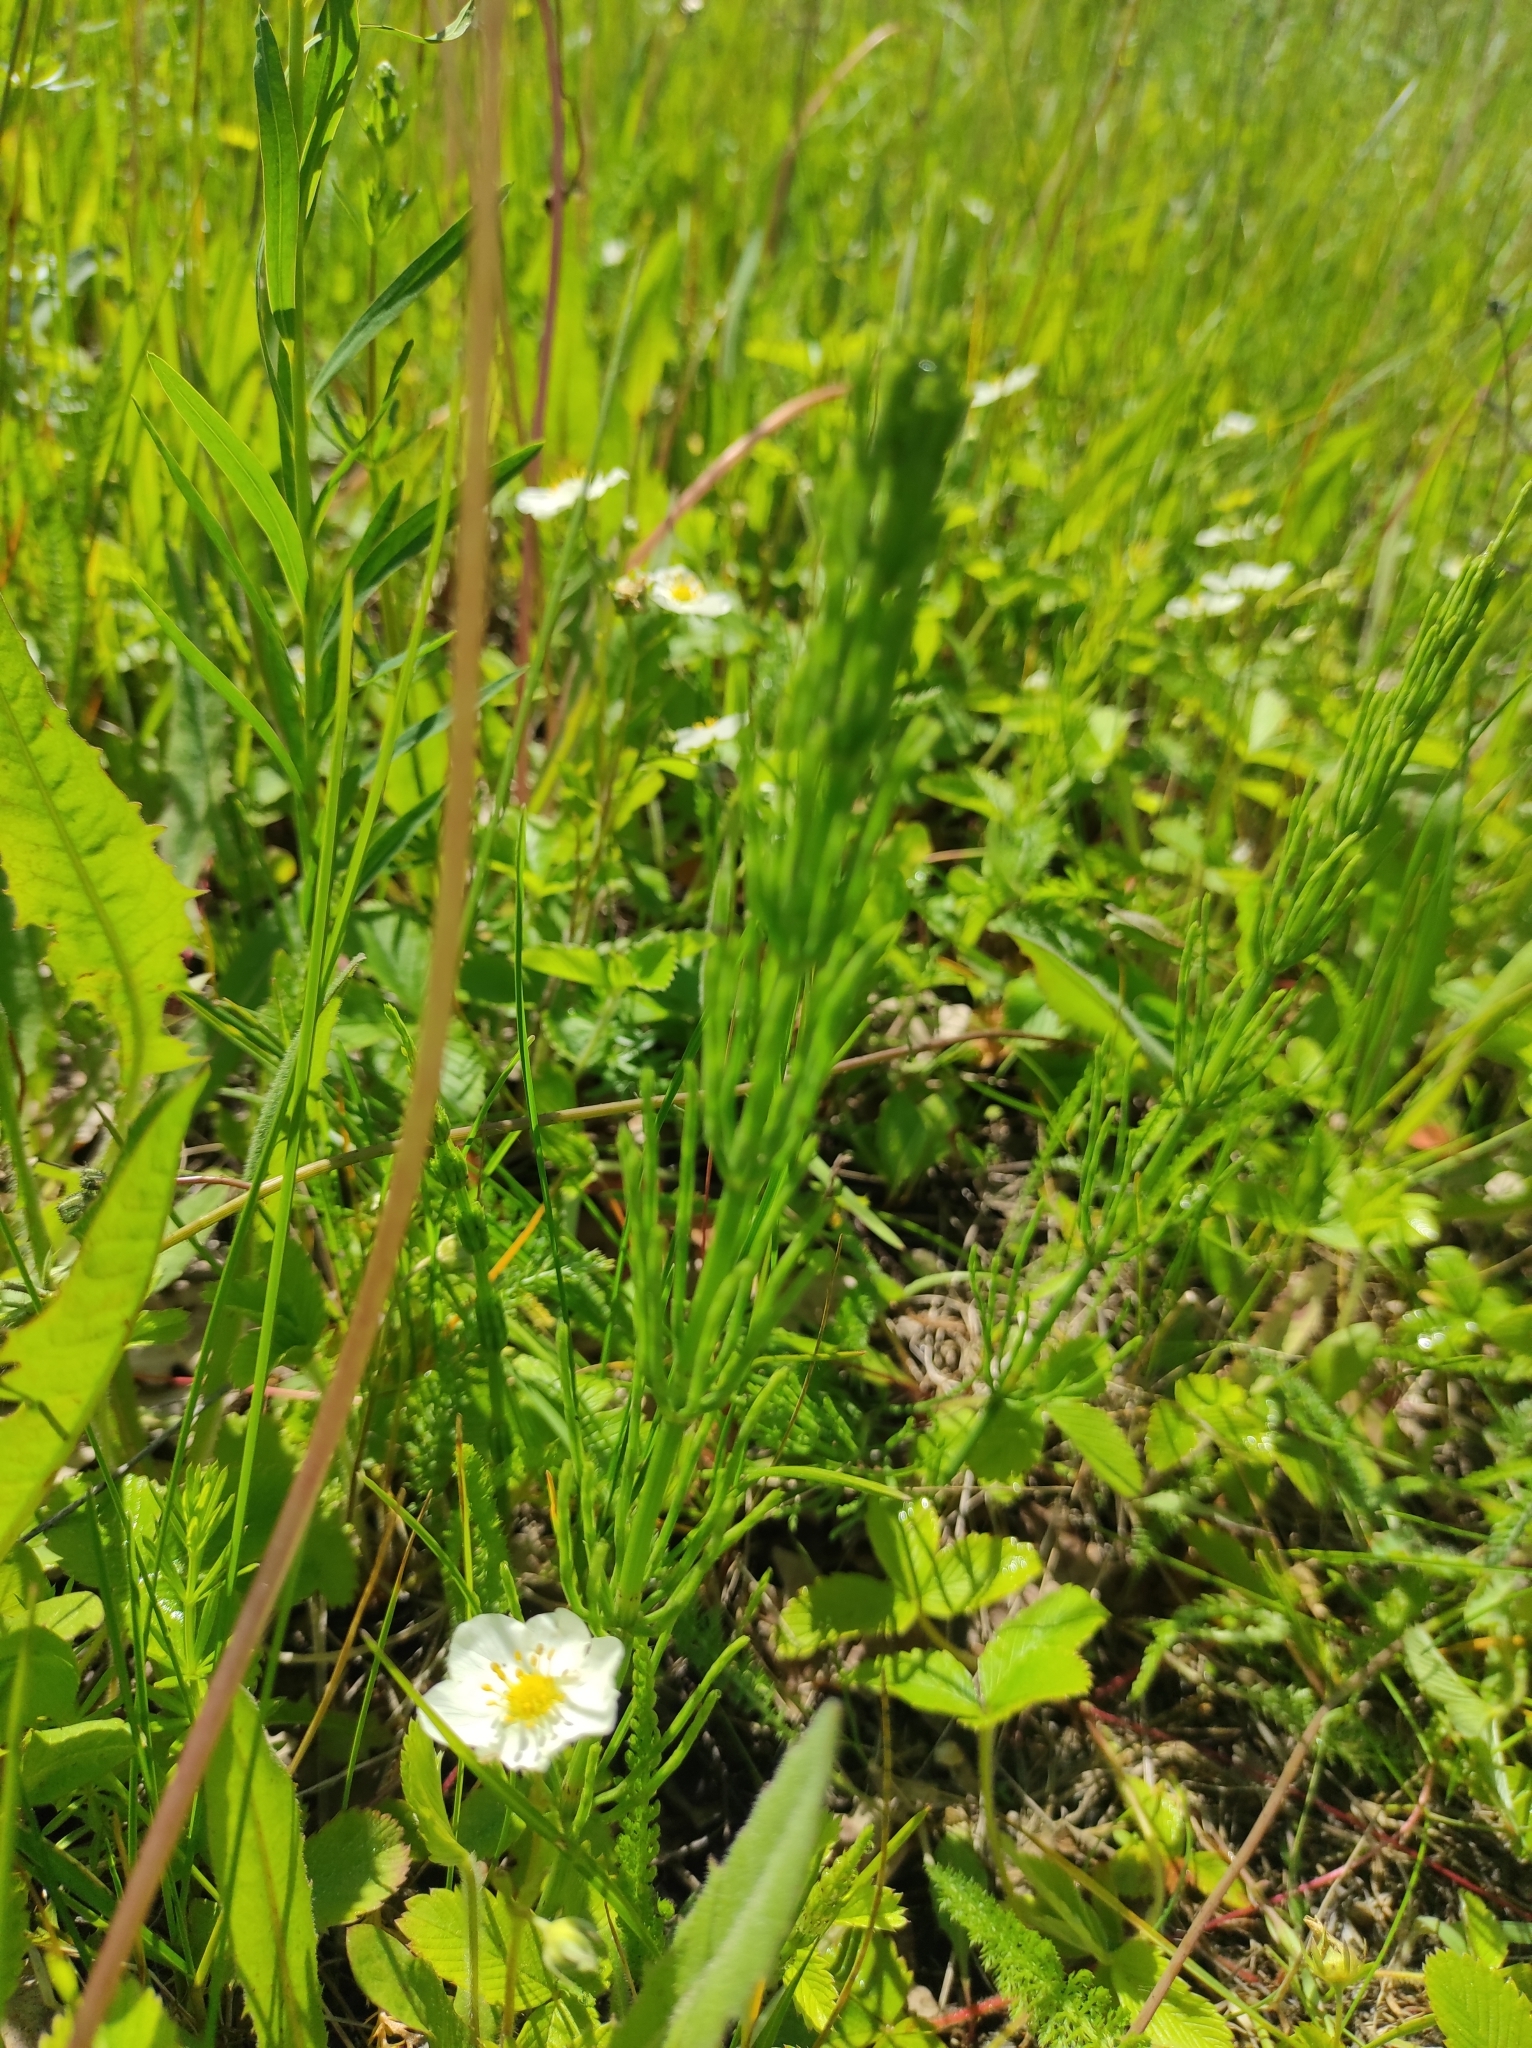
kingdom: Plantae
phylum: Tracheophyta
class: Polypodiopsida
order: Equisetales
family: Equisetaceae
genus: Equisetum
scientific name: Equisetum arvense
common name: Field horsetail
